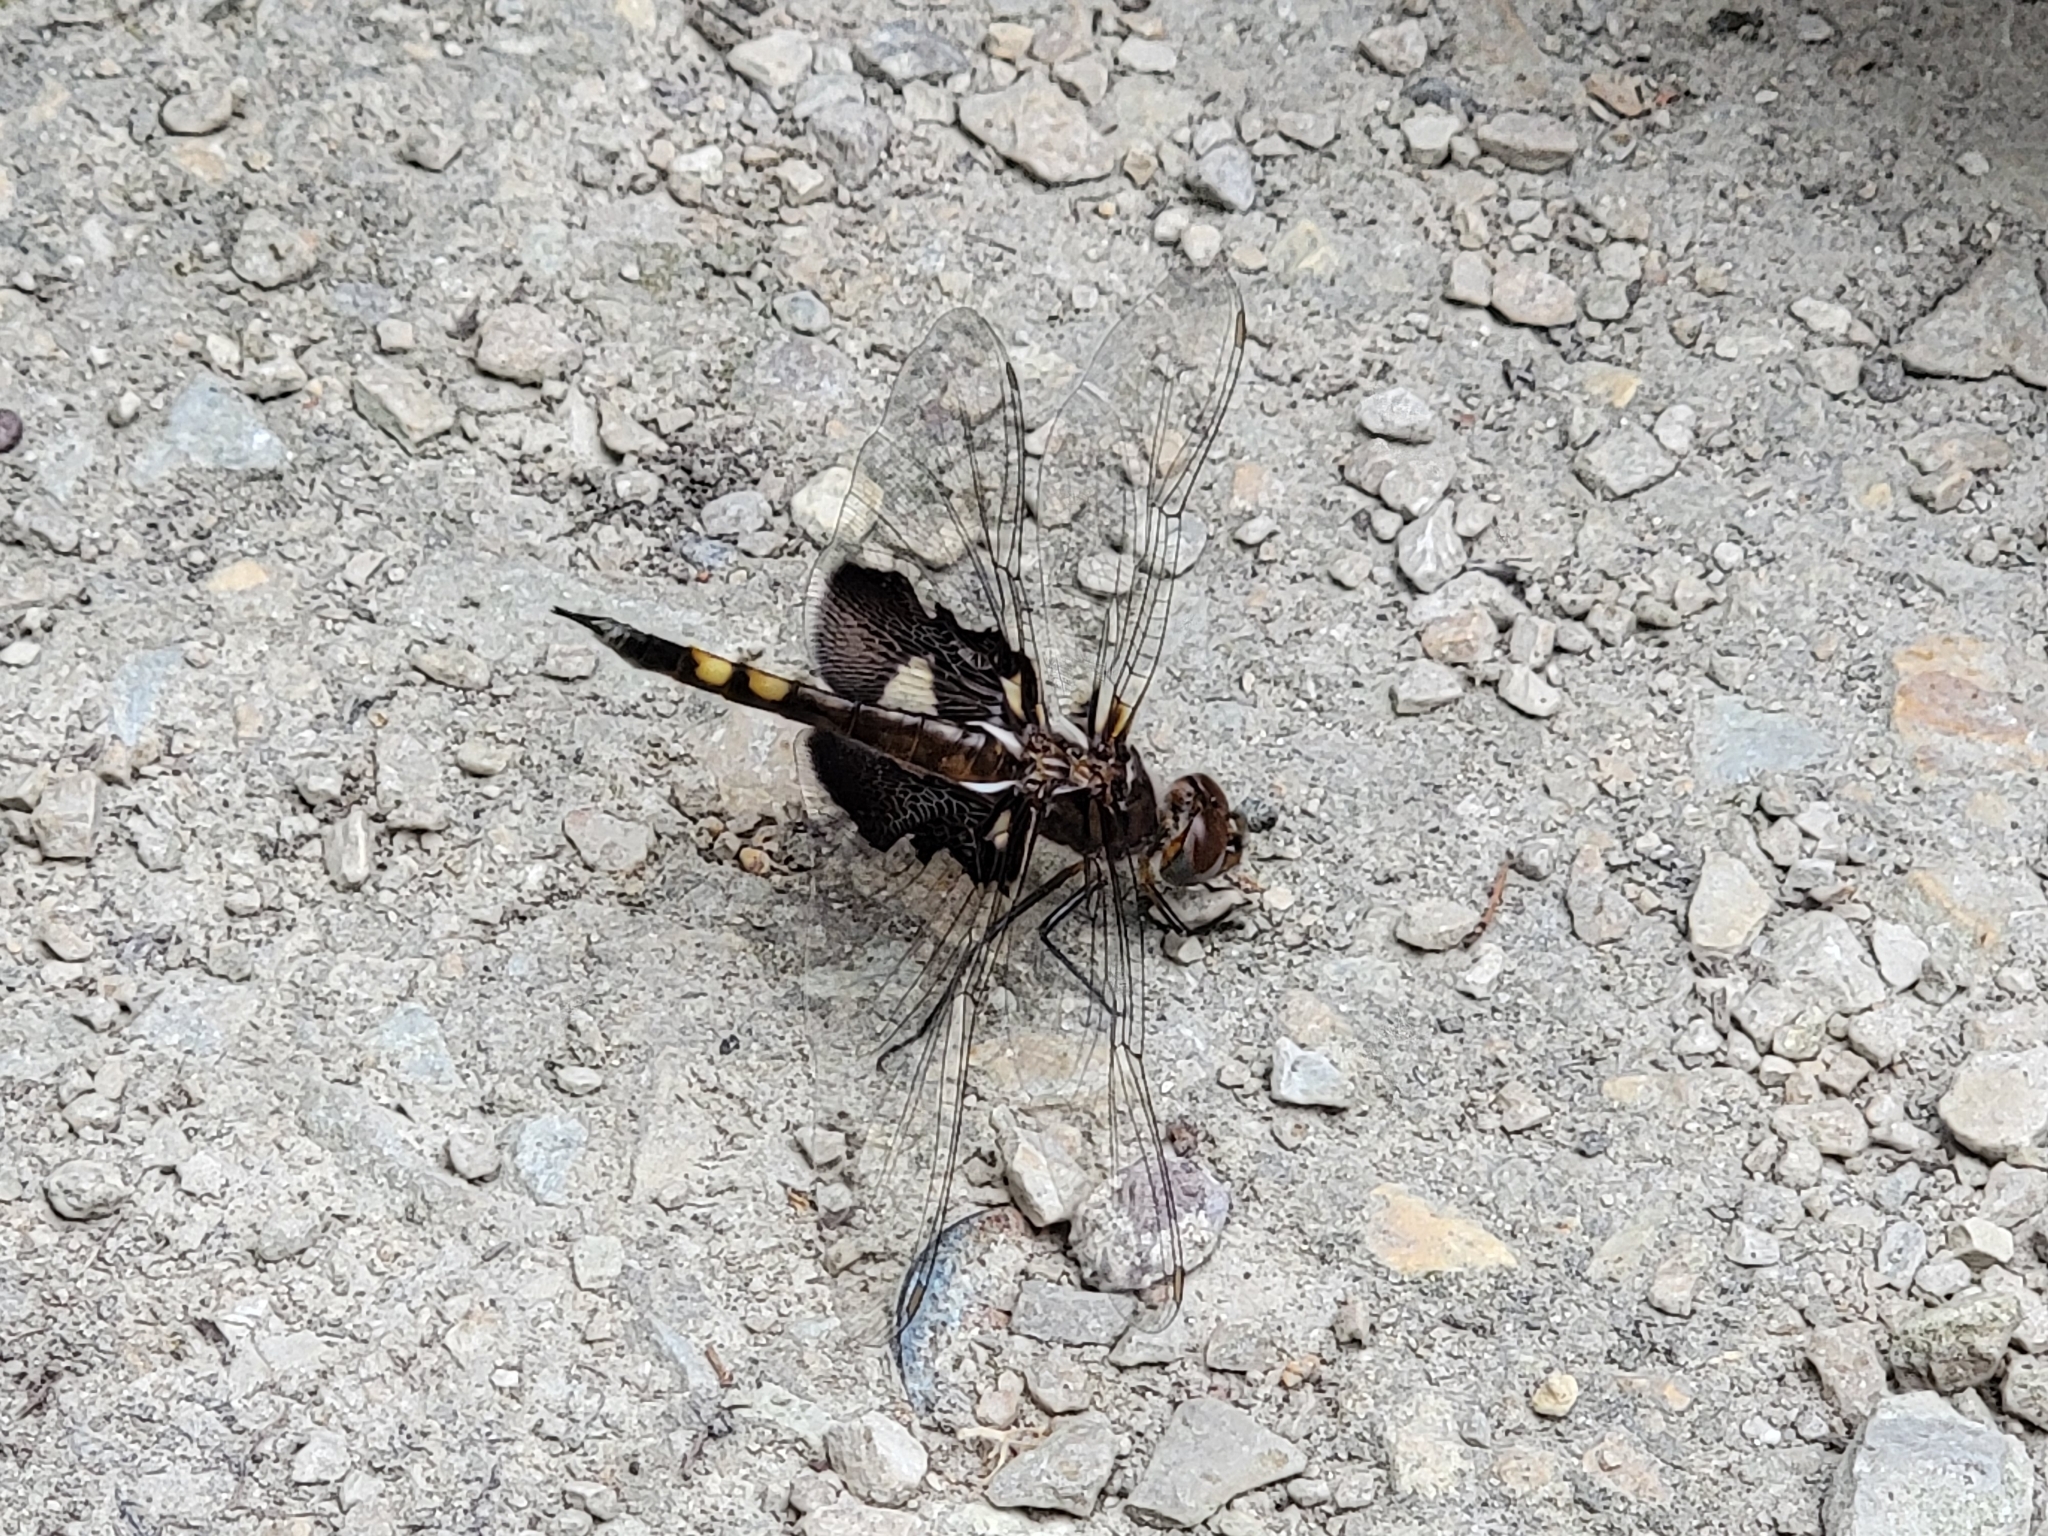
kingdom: Animalia
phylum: Arthropoda
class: Insecta
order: Odonata
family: Libellulidae
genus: Tramea
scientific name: Tramea lacerata
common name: Black saddlebags
